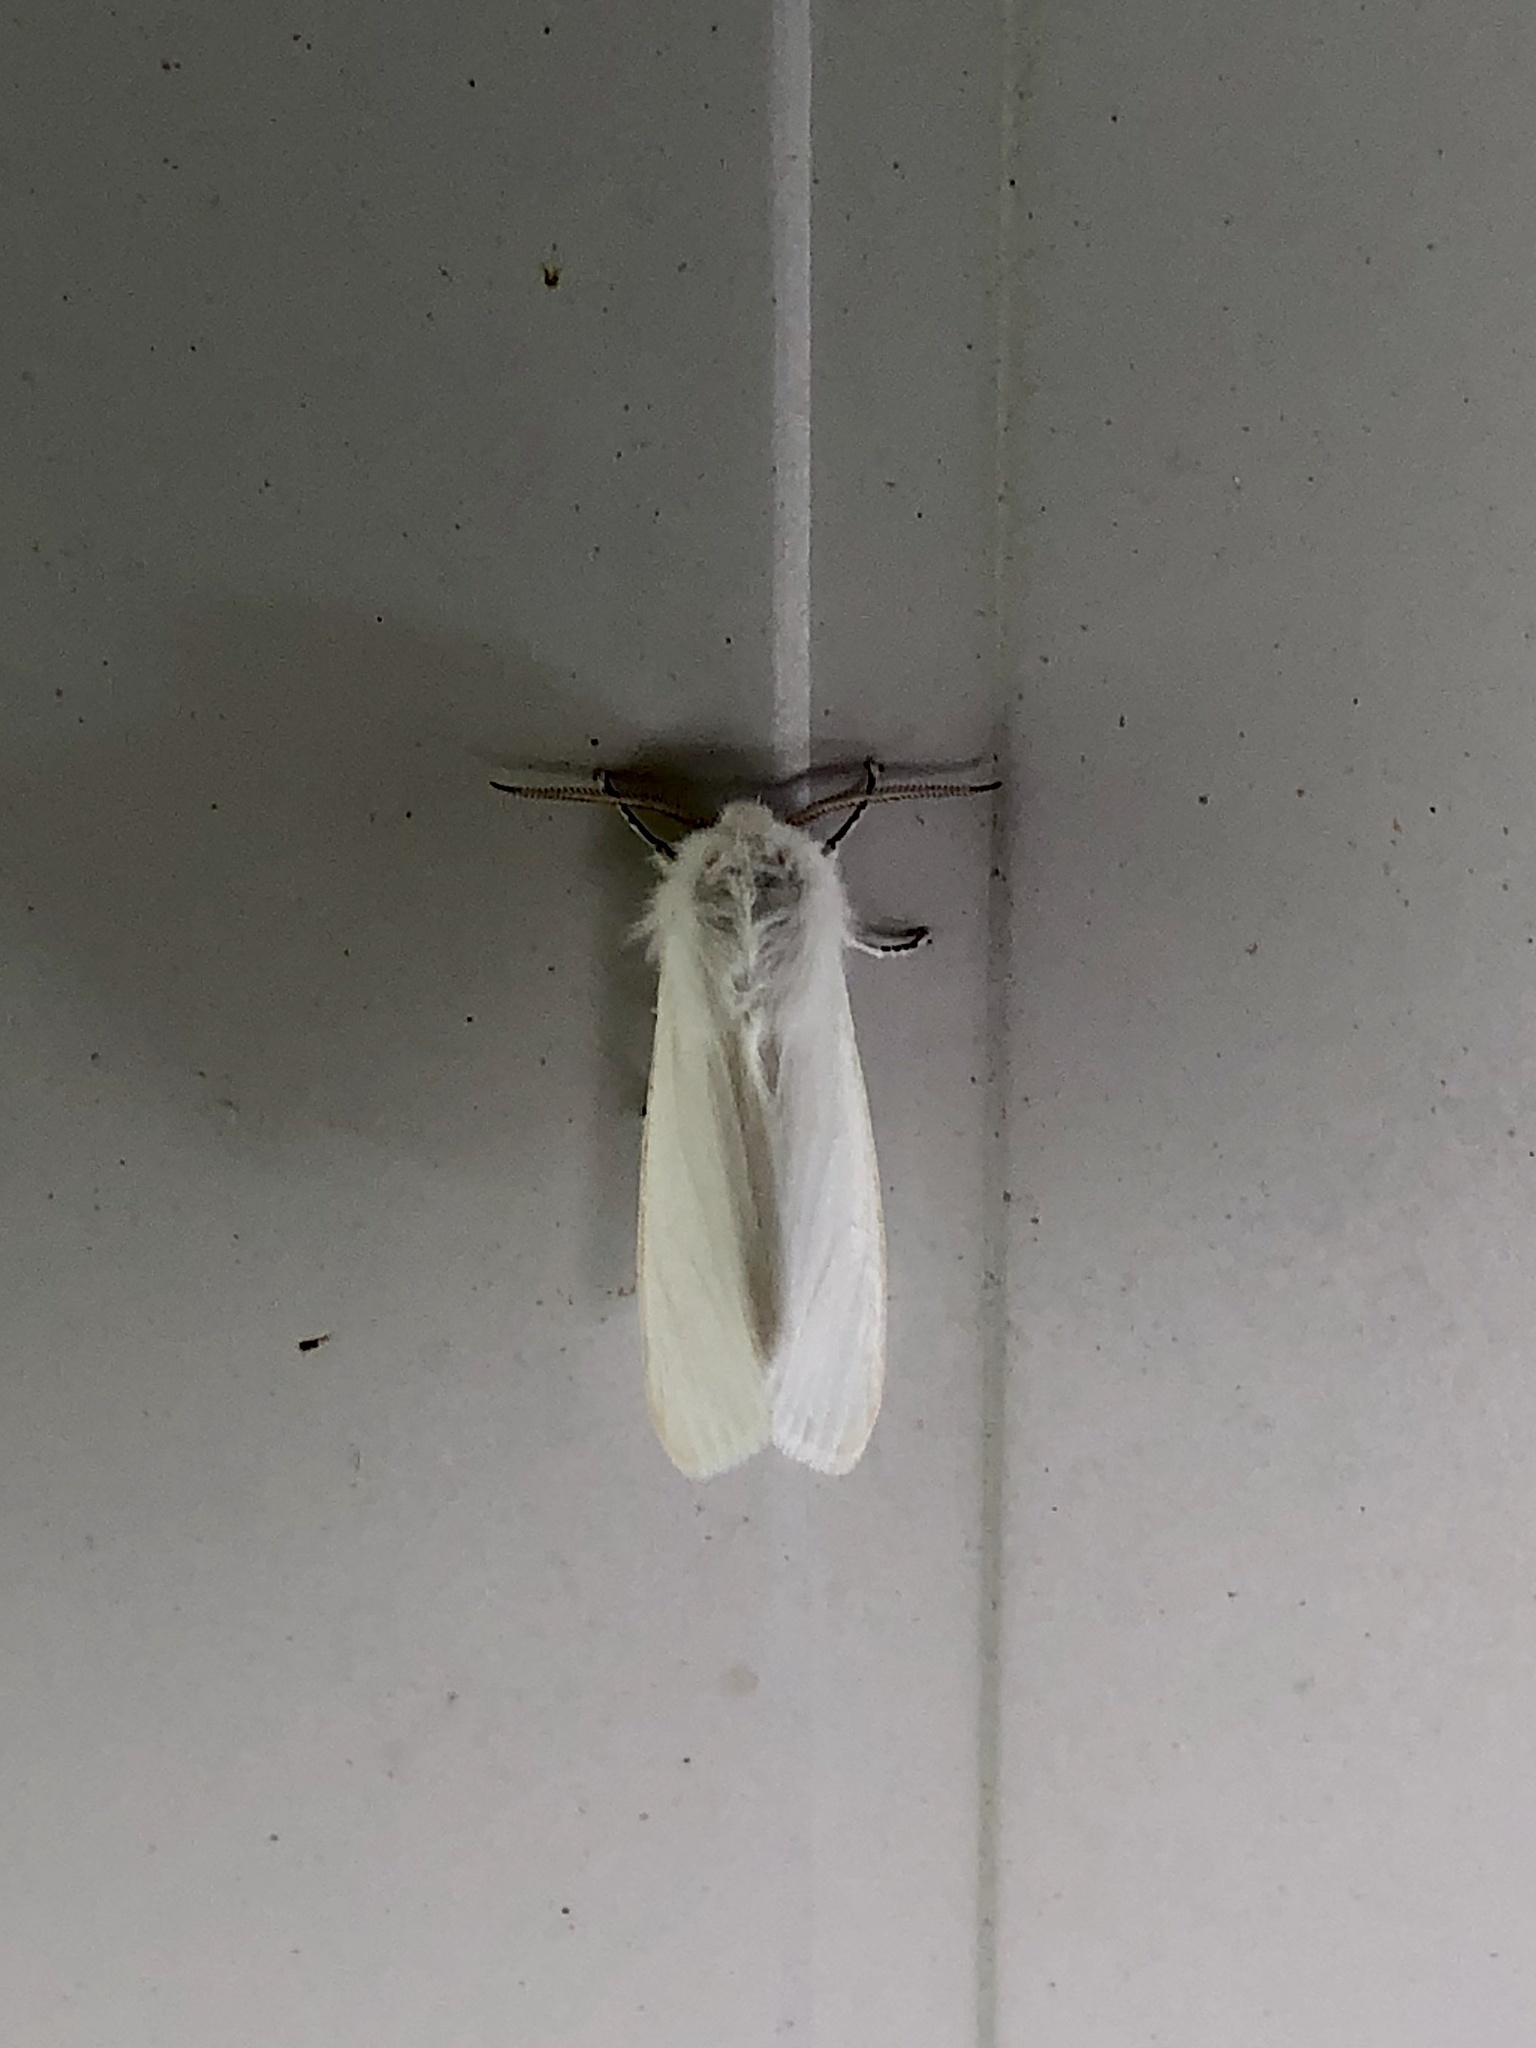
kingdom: Animalia
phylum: Arthropoda
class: Insecta
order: Lepidoptera
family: Erebidae
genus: Hyphantria
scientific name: Hyphantria cunea
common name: American white moth
